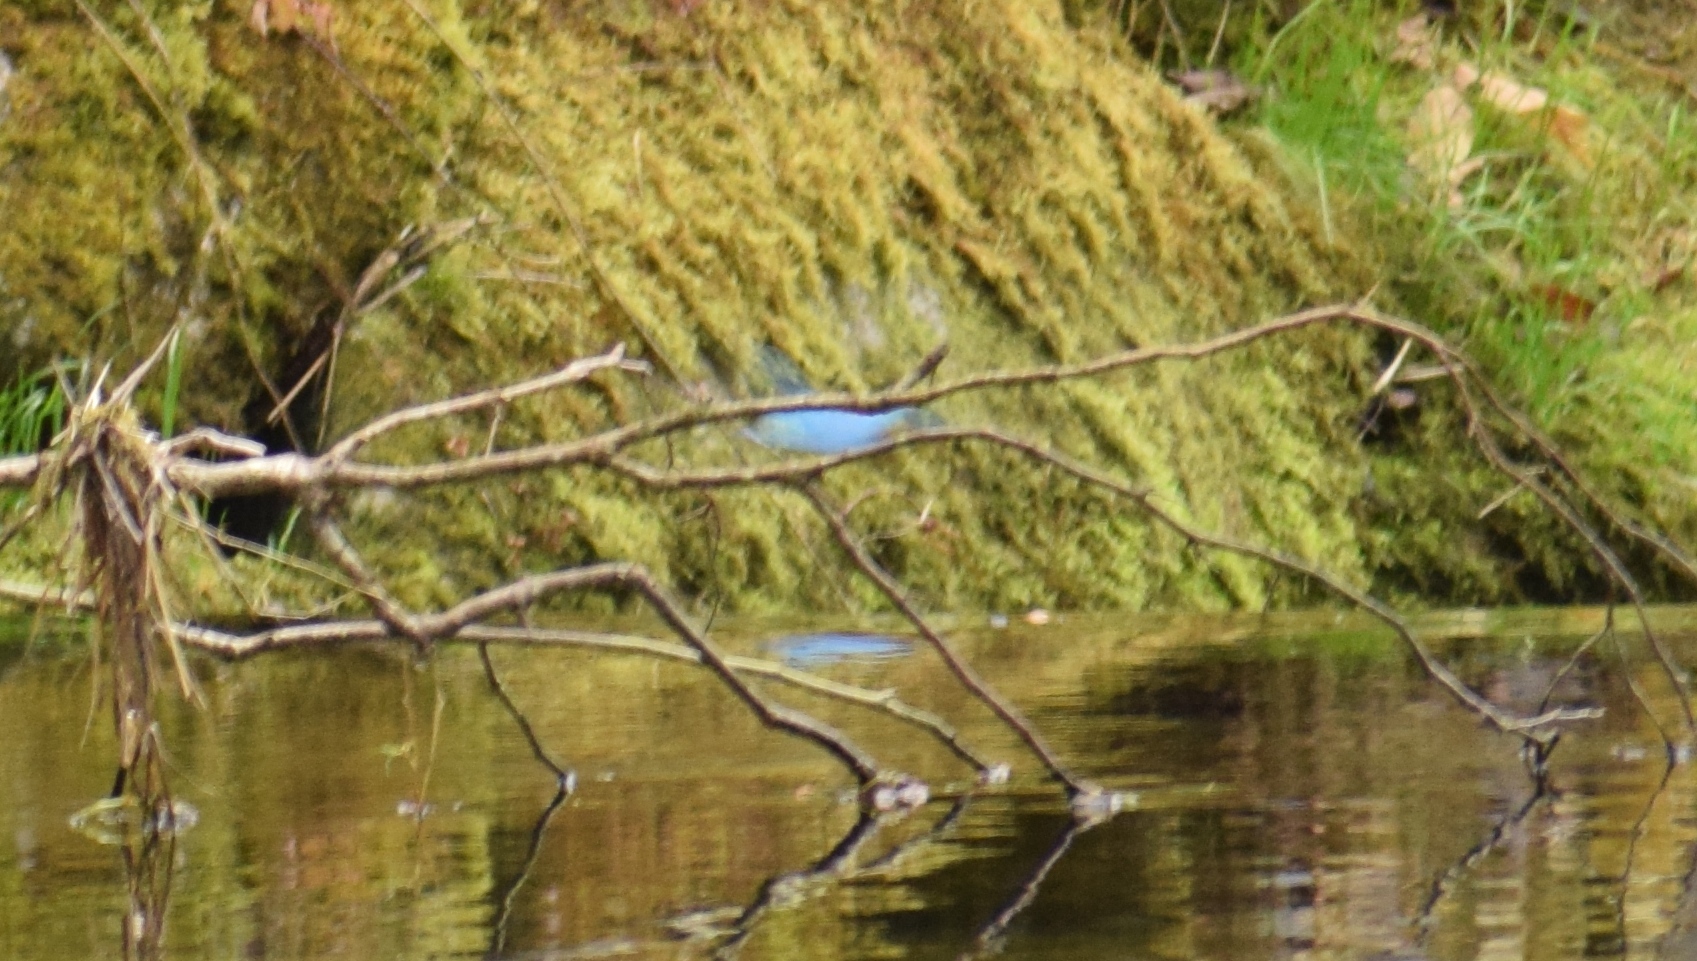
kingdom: Animalia
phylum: Chordata
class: Aves
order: Coraciiformes
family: Alcedinidae
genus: Alcedo
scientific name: Alcedo atthis
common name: Common kingfisher
